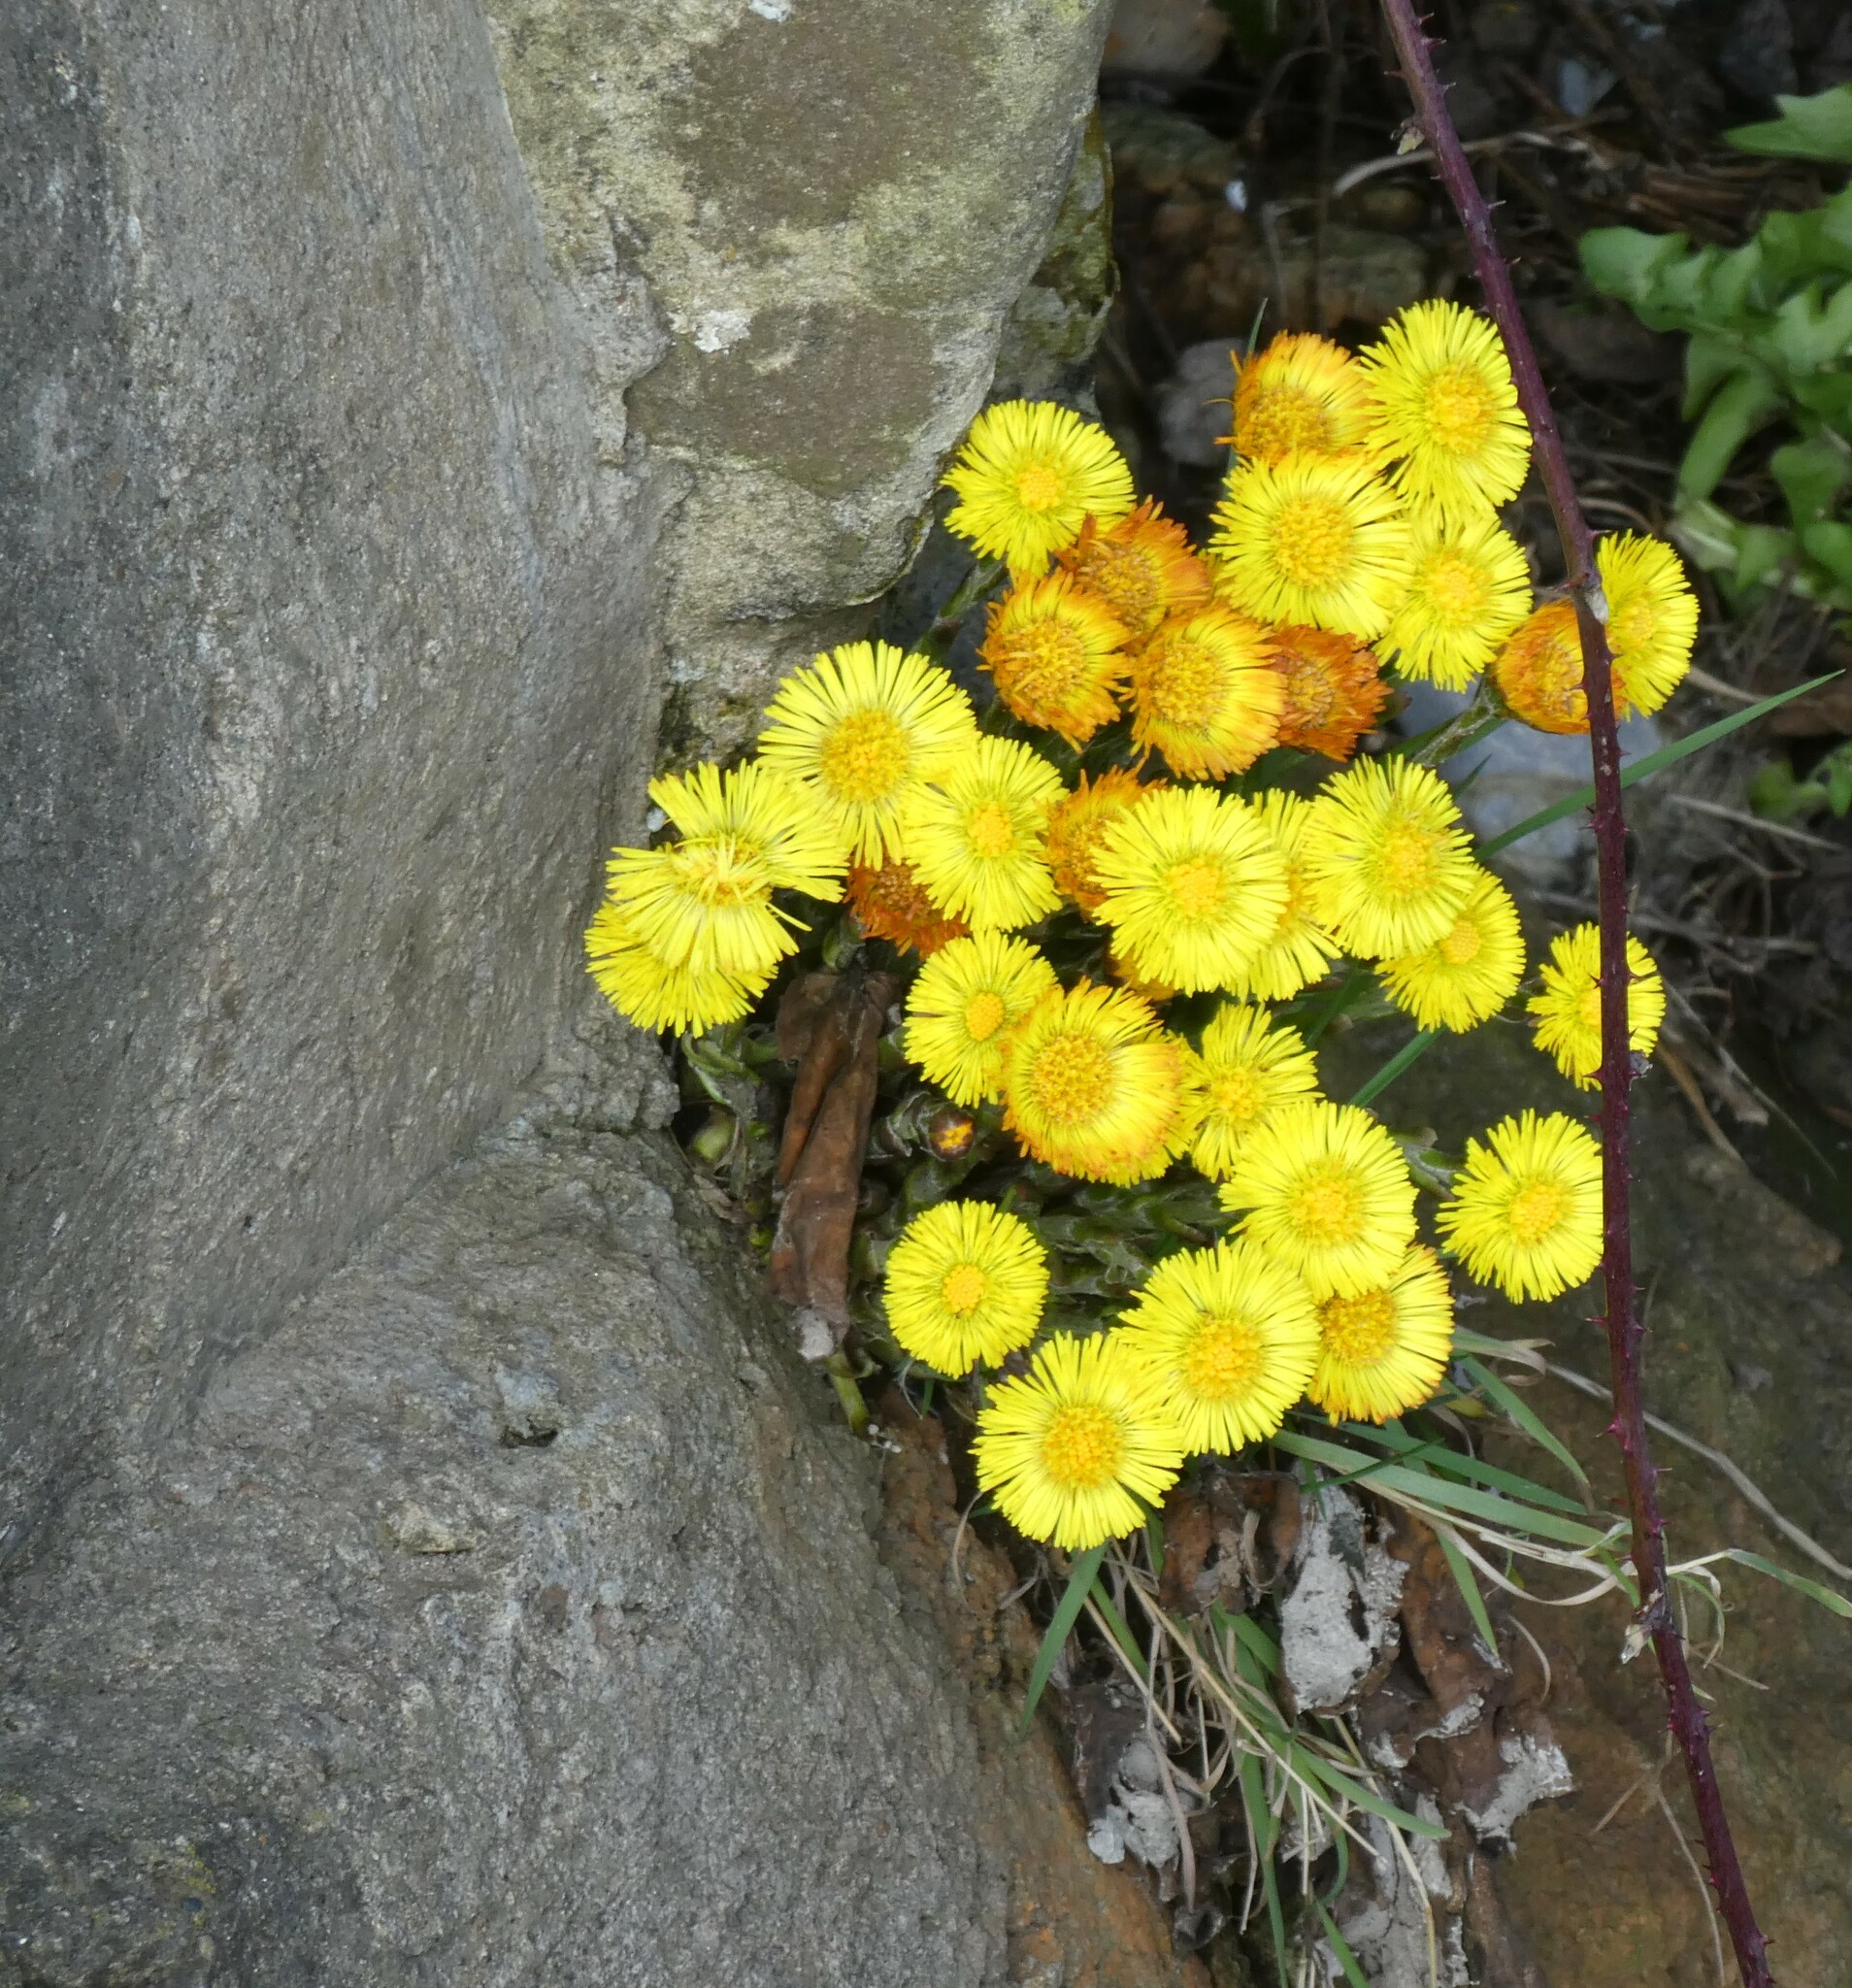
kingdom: Plantae
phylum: Tracheophyta
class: Magnoliopsida
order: Asterales
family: Asteraceae
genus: Tussilago
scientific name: Tussilago farfara
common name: Coltsfoot
